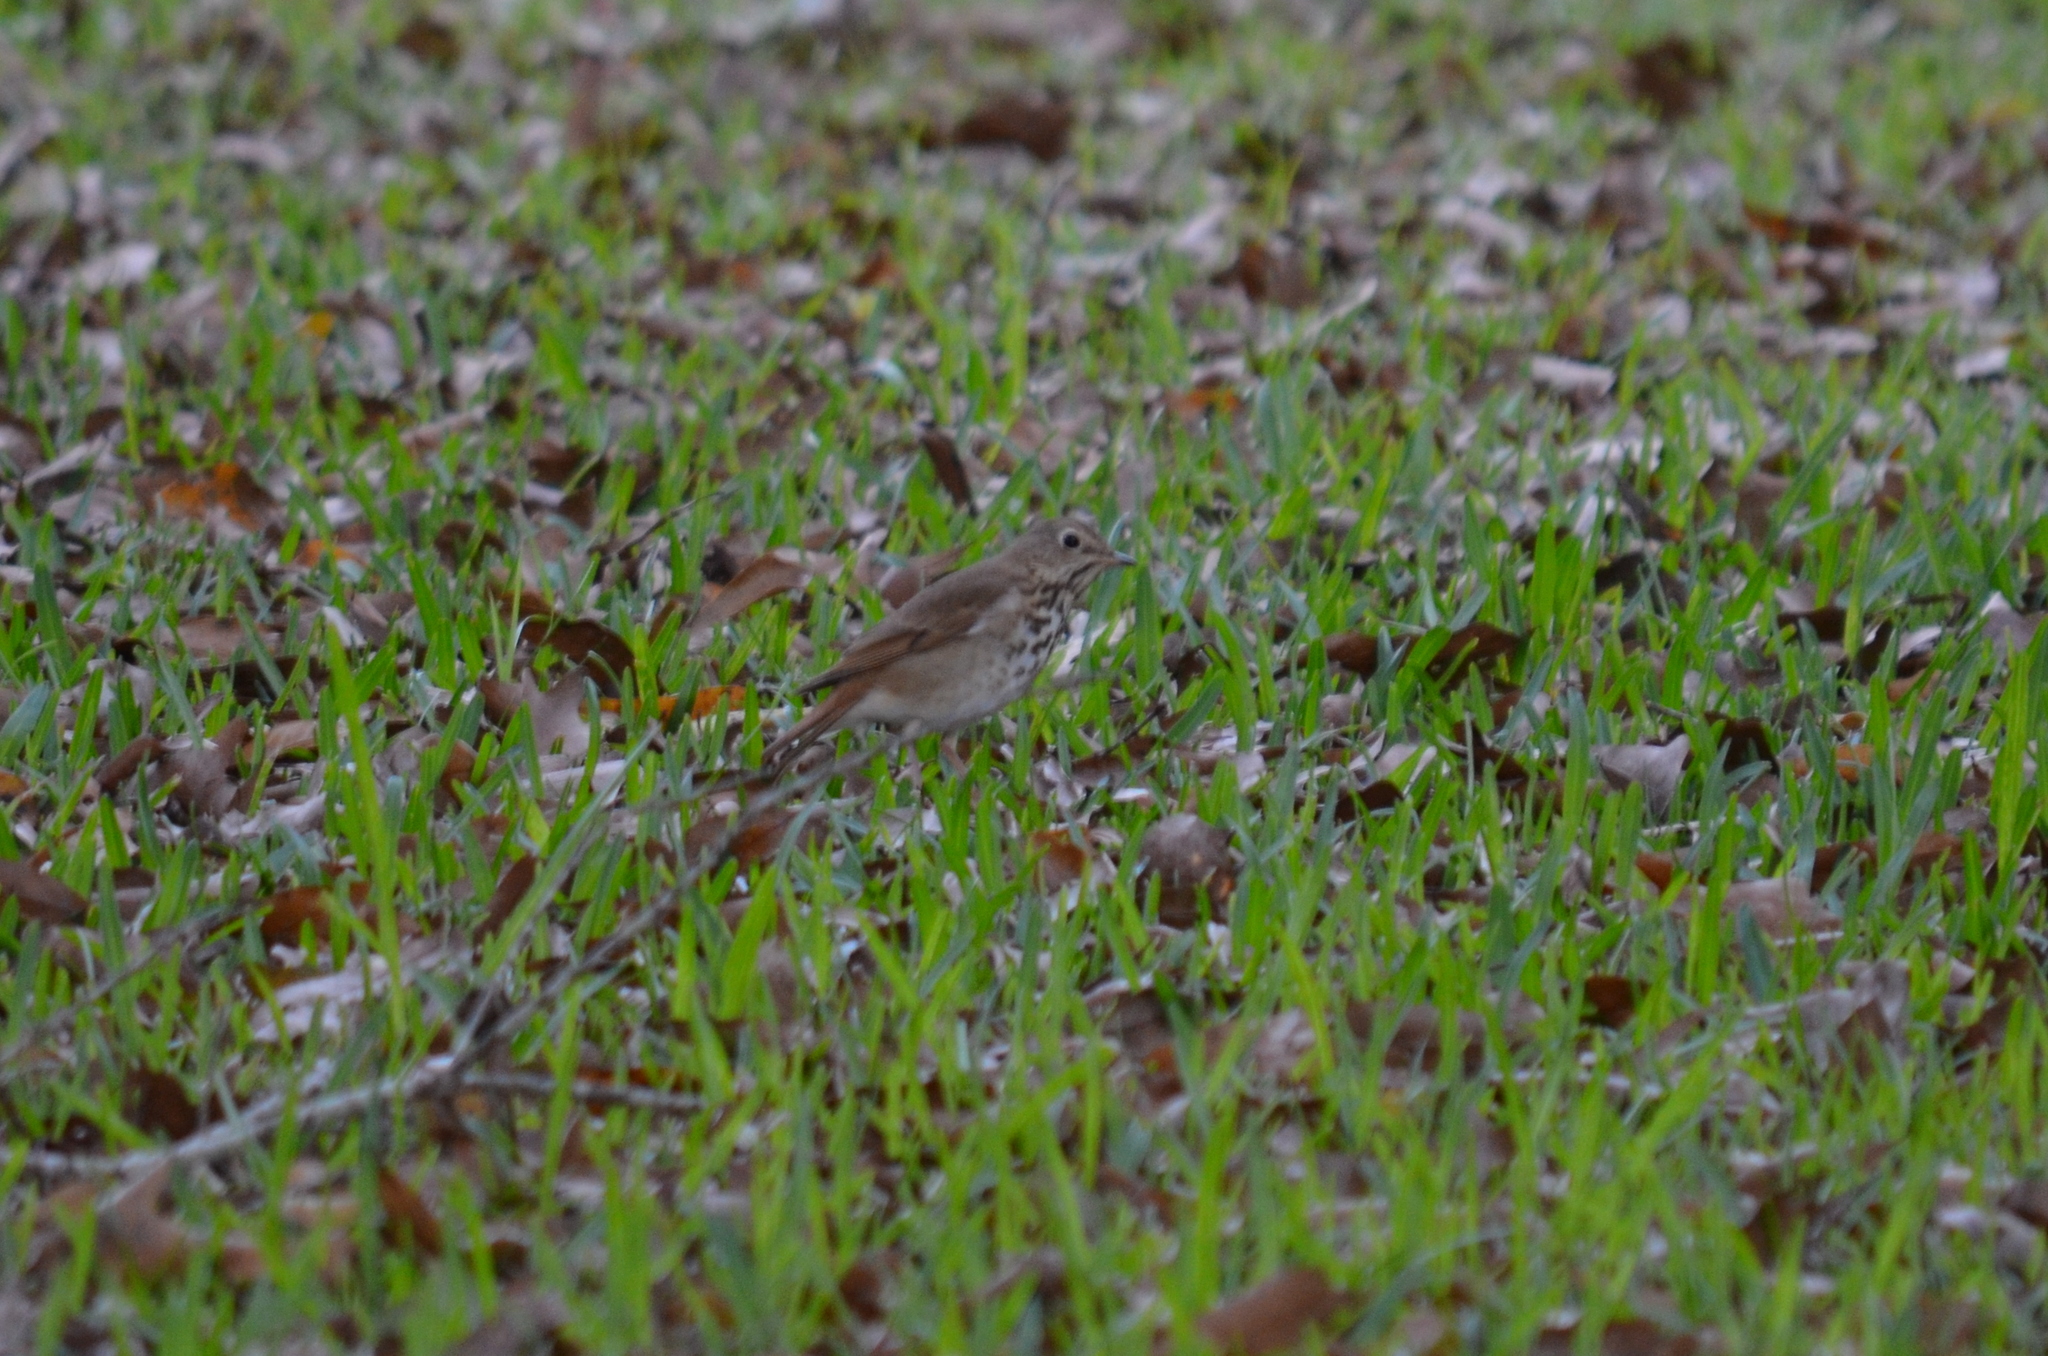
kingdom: Animalia
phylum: Chordata
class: Aves
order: Passeriformes
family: Turdidae
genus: Catharus
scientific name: Catharus guttatus
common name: Hermit thrush
